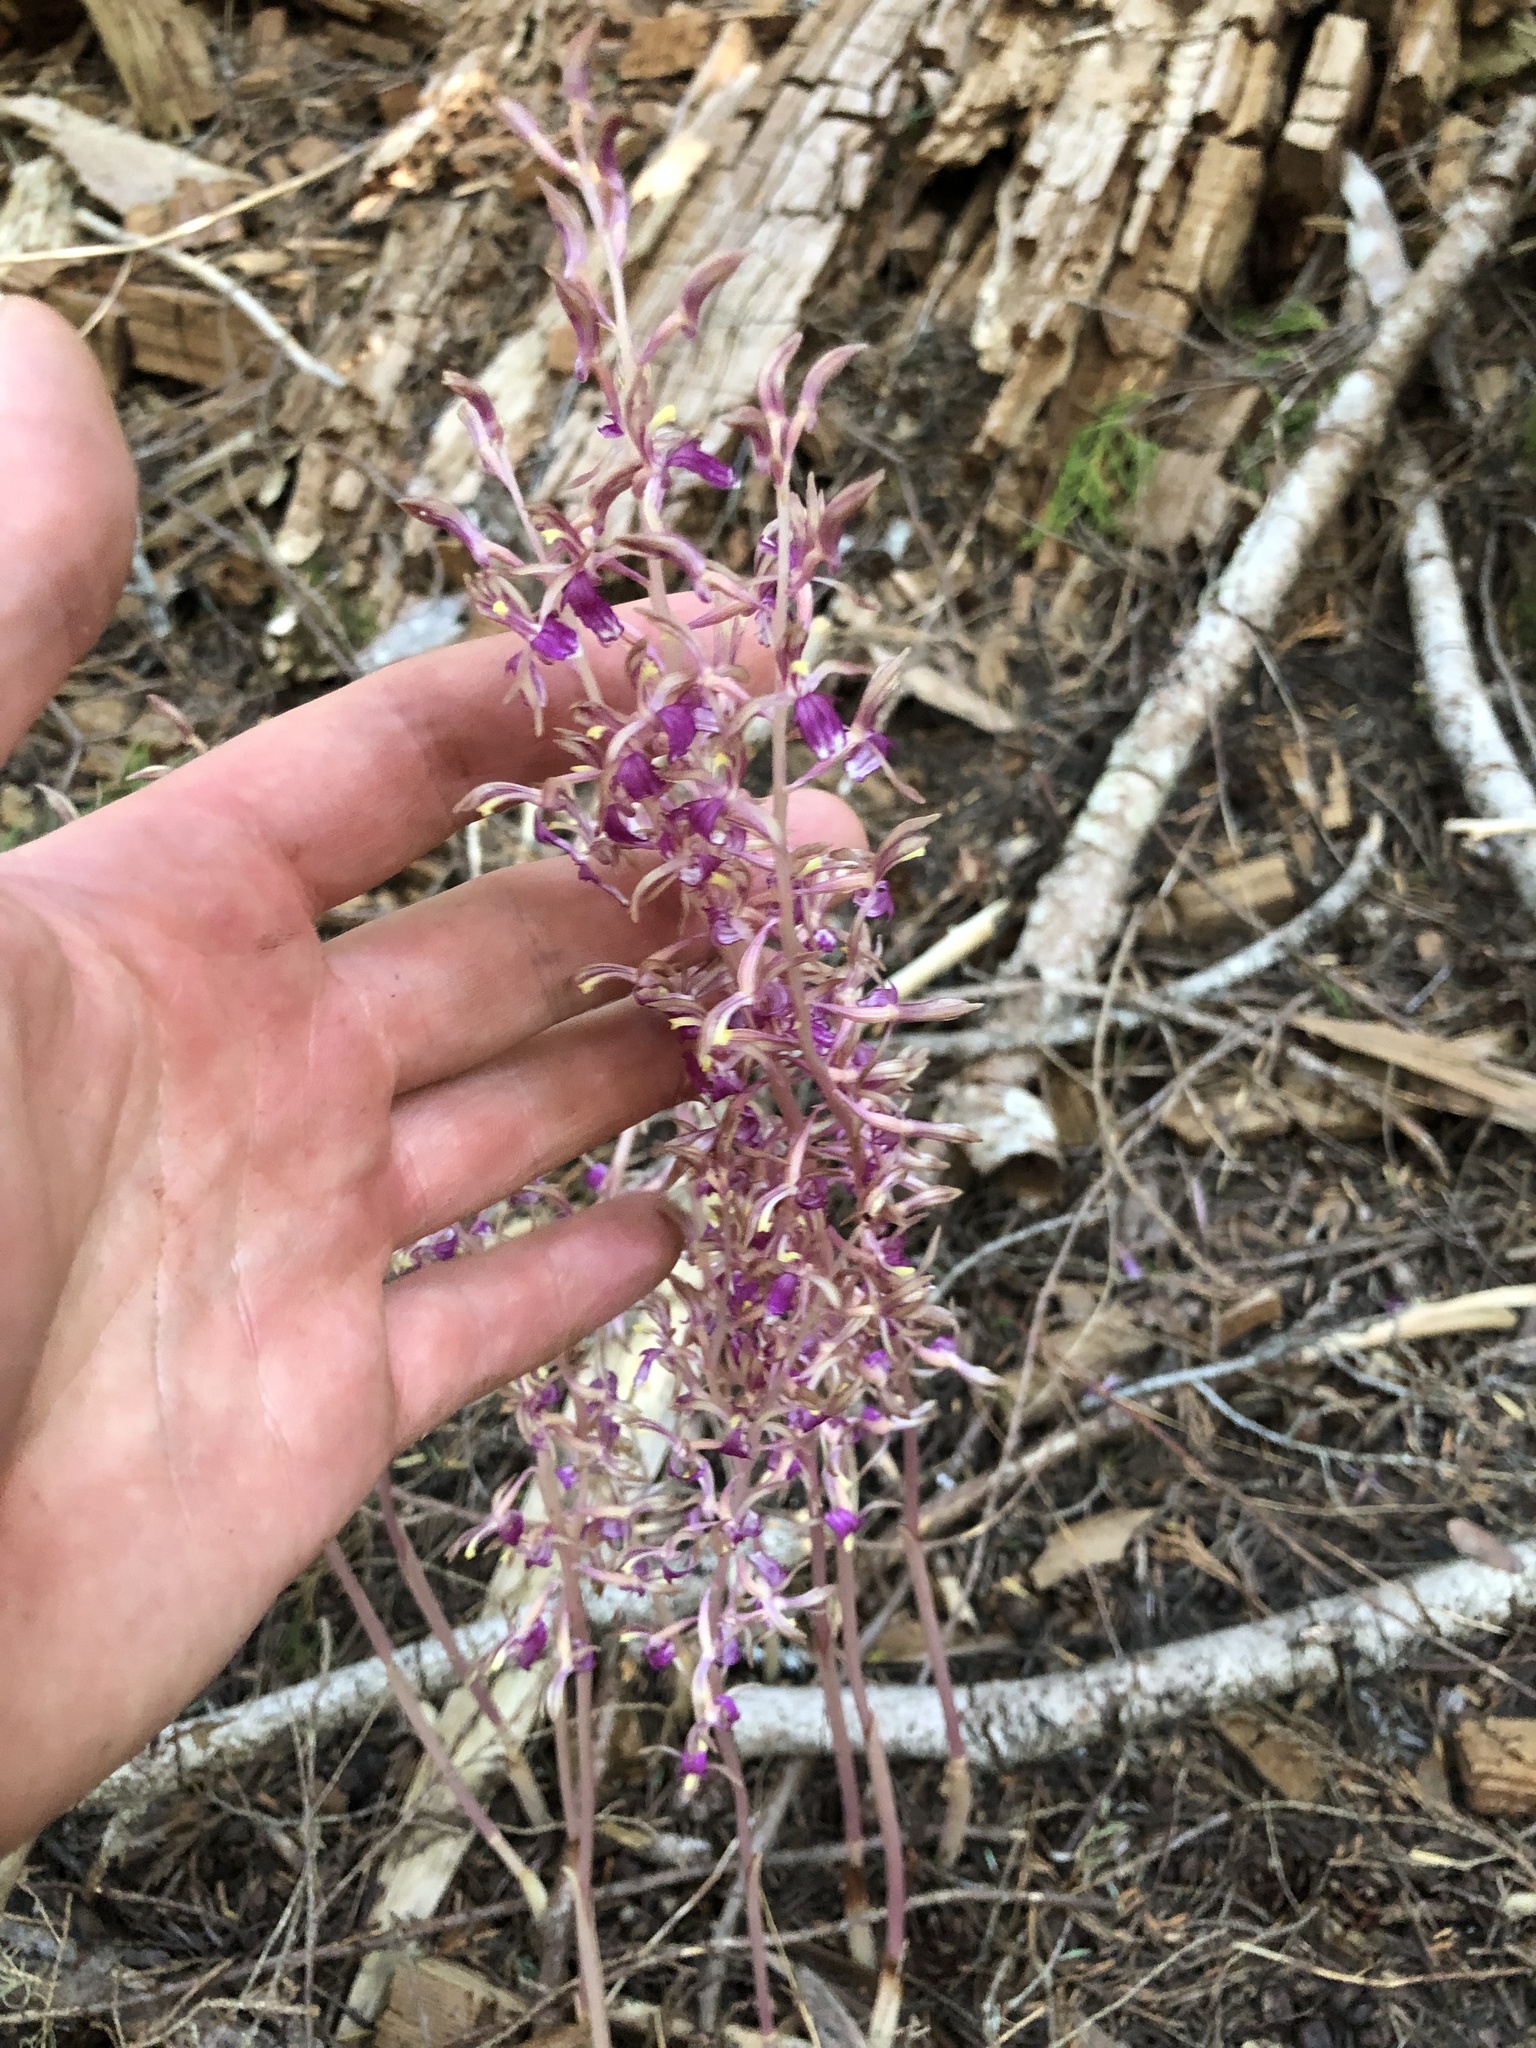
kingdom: Plantae
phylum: Tracheophyta
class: Liliopsida
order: Asparagales
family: Orchidaceae
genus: Corallorhiza
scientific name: Corallorhiza mertensiana
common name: Pacific coralroot
